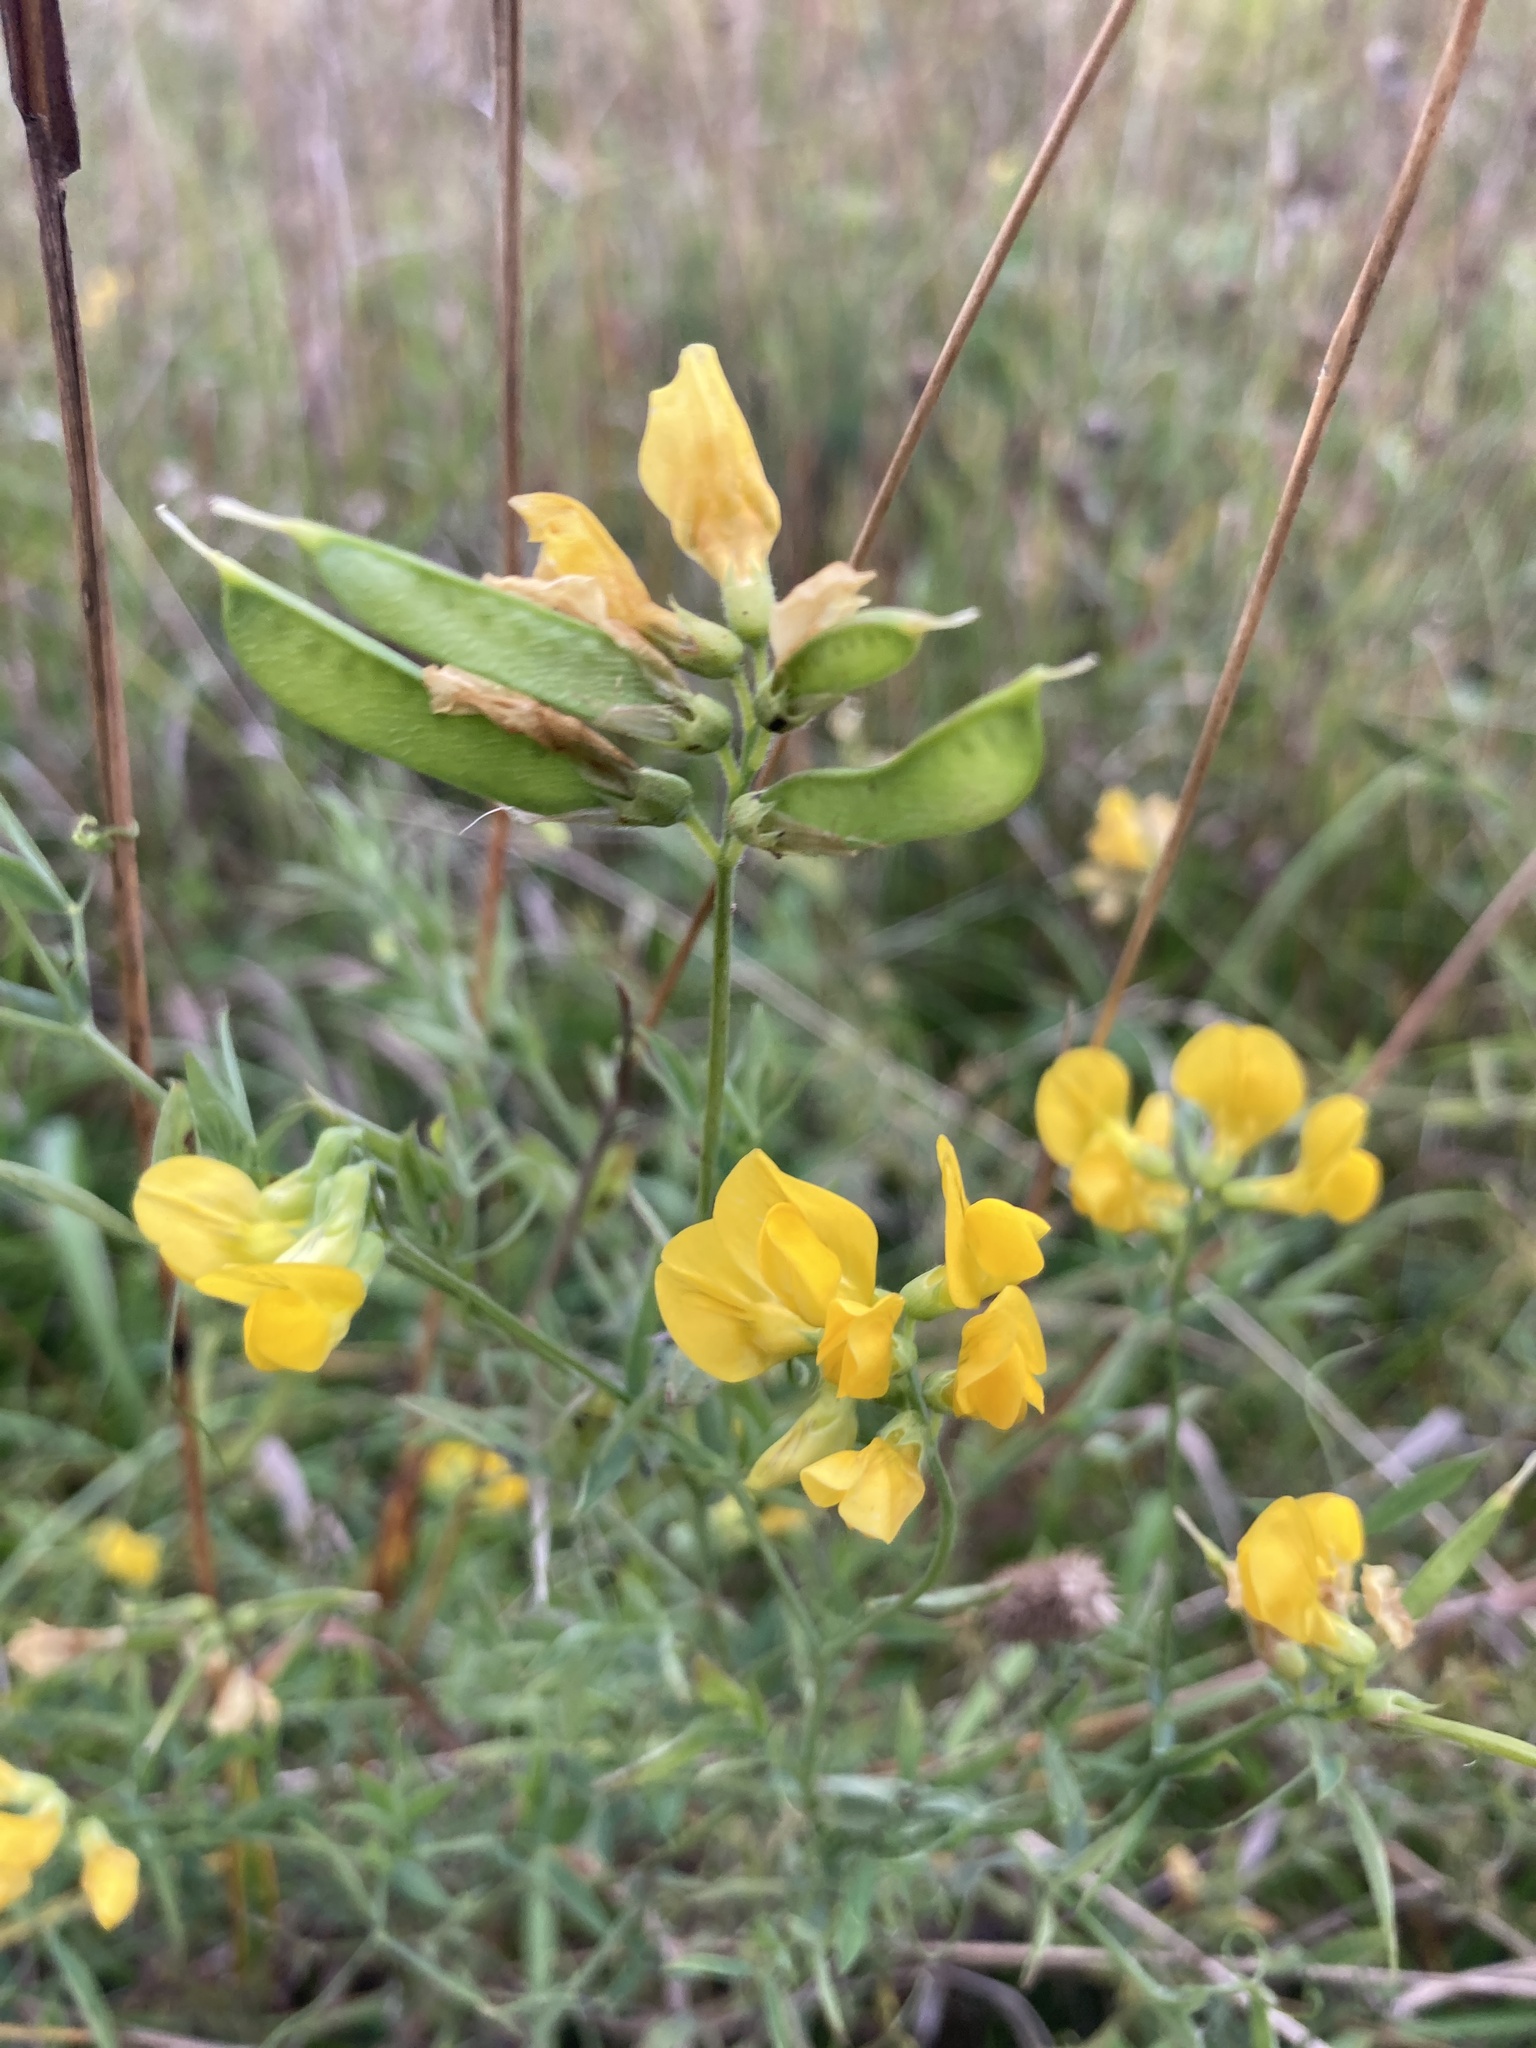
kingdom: Plantae
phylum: Tracheophyta
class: Magnoliopsida
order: Fabales
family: Fabaceae
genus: Lathyrus
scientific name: Lathyrus pratensis
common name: Meadow vetchling
